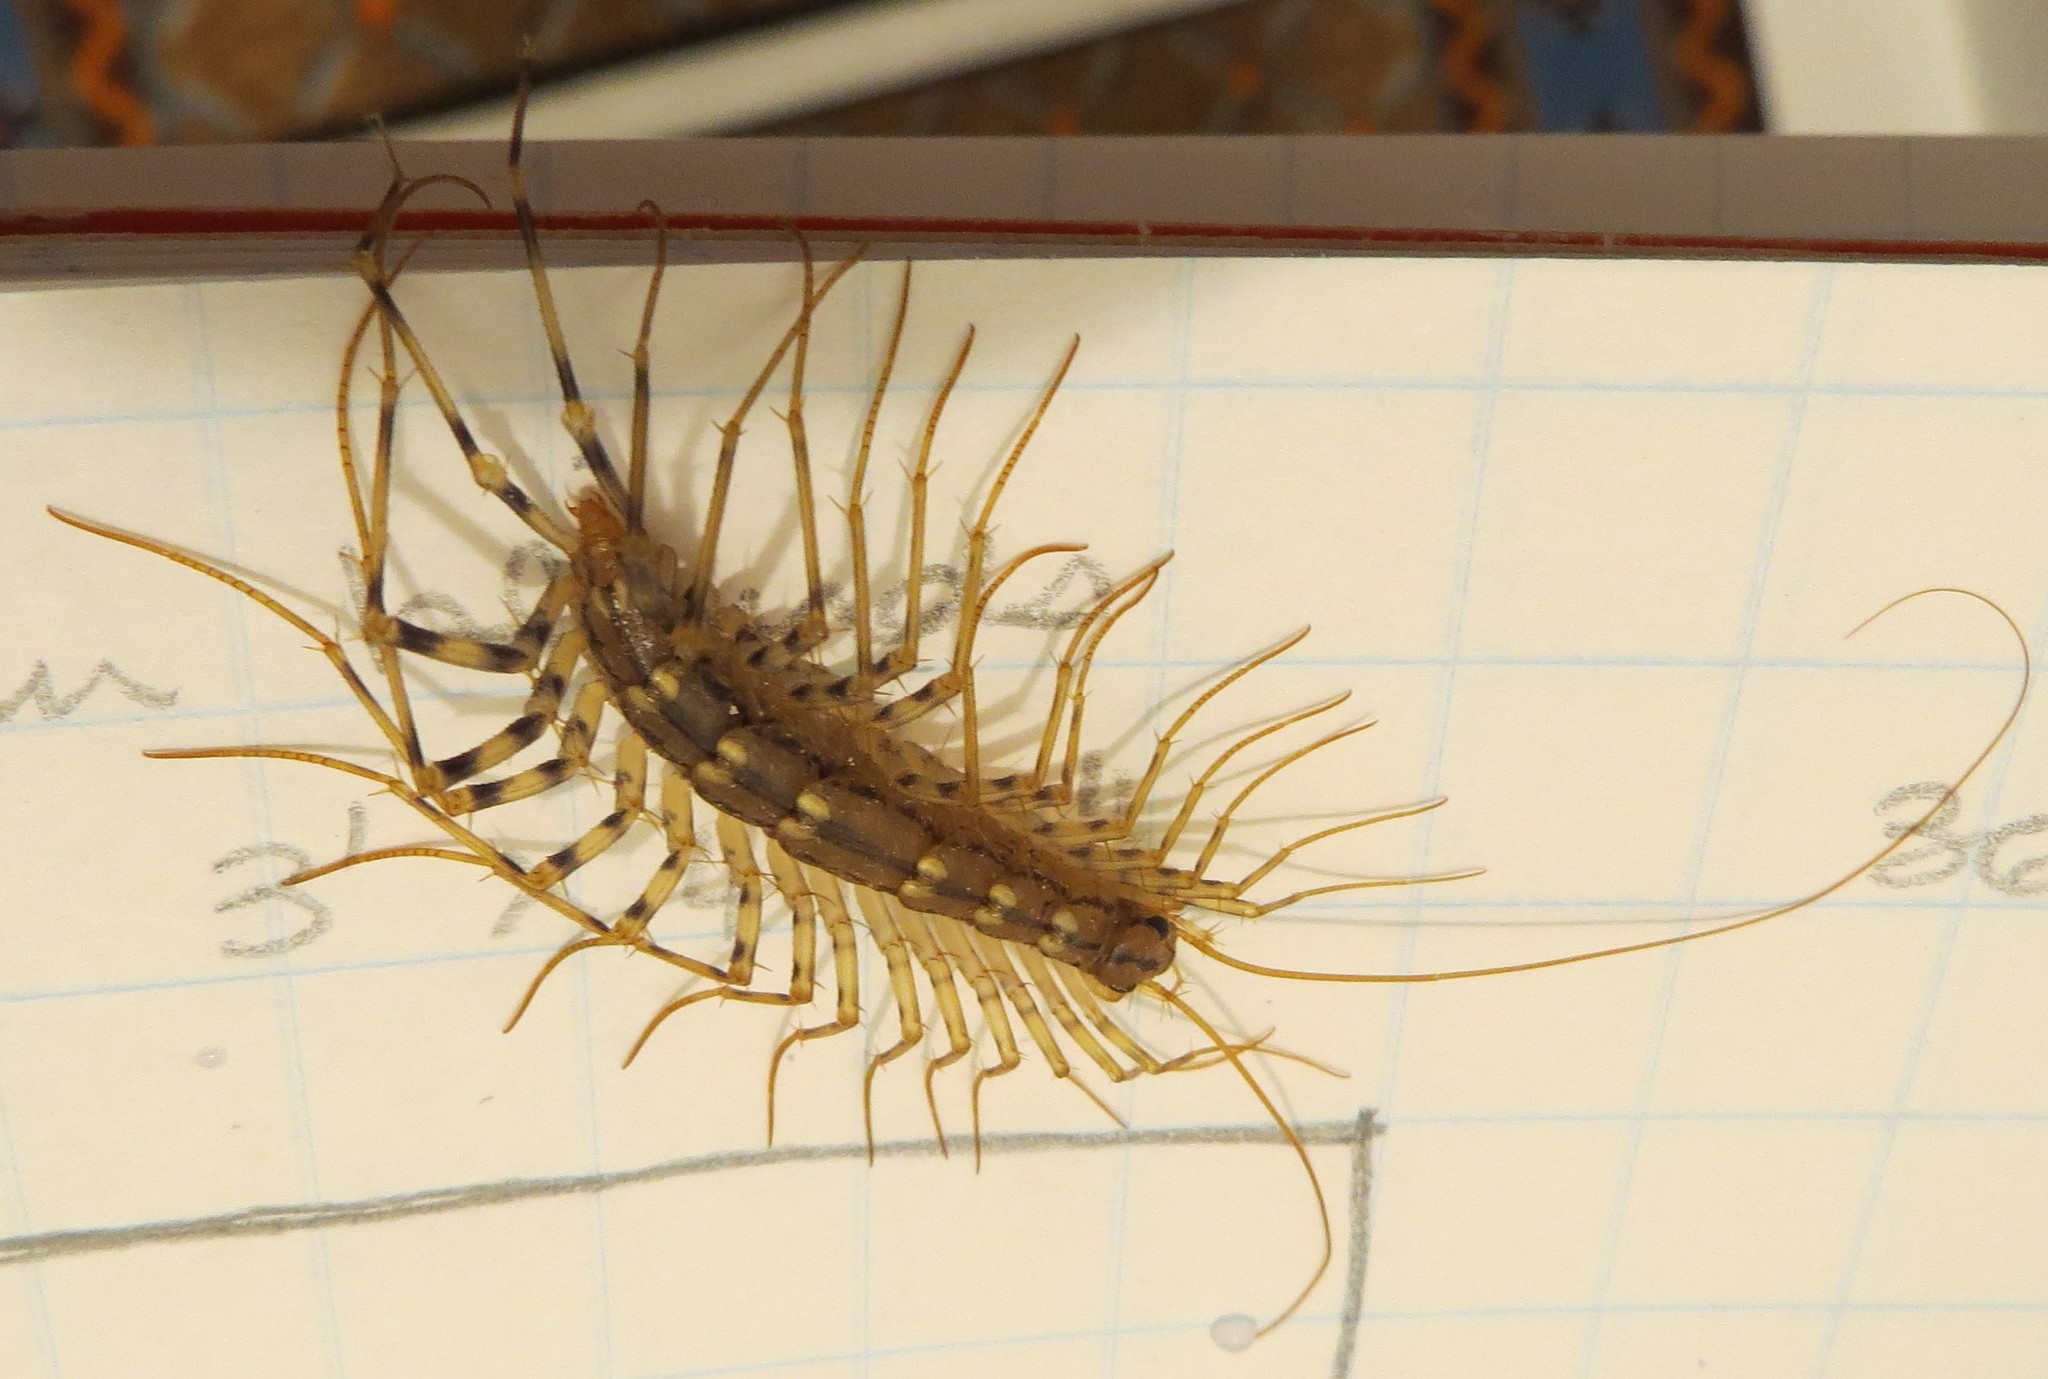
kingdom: Animalia
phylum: Arthropoda
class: Chilopoda
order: Scutigeromorpha
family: Scutigeridae
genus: Scutigera
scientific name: Scutigera coleoptrata
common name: House centipede
